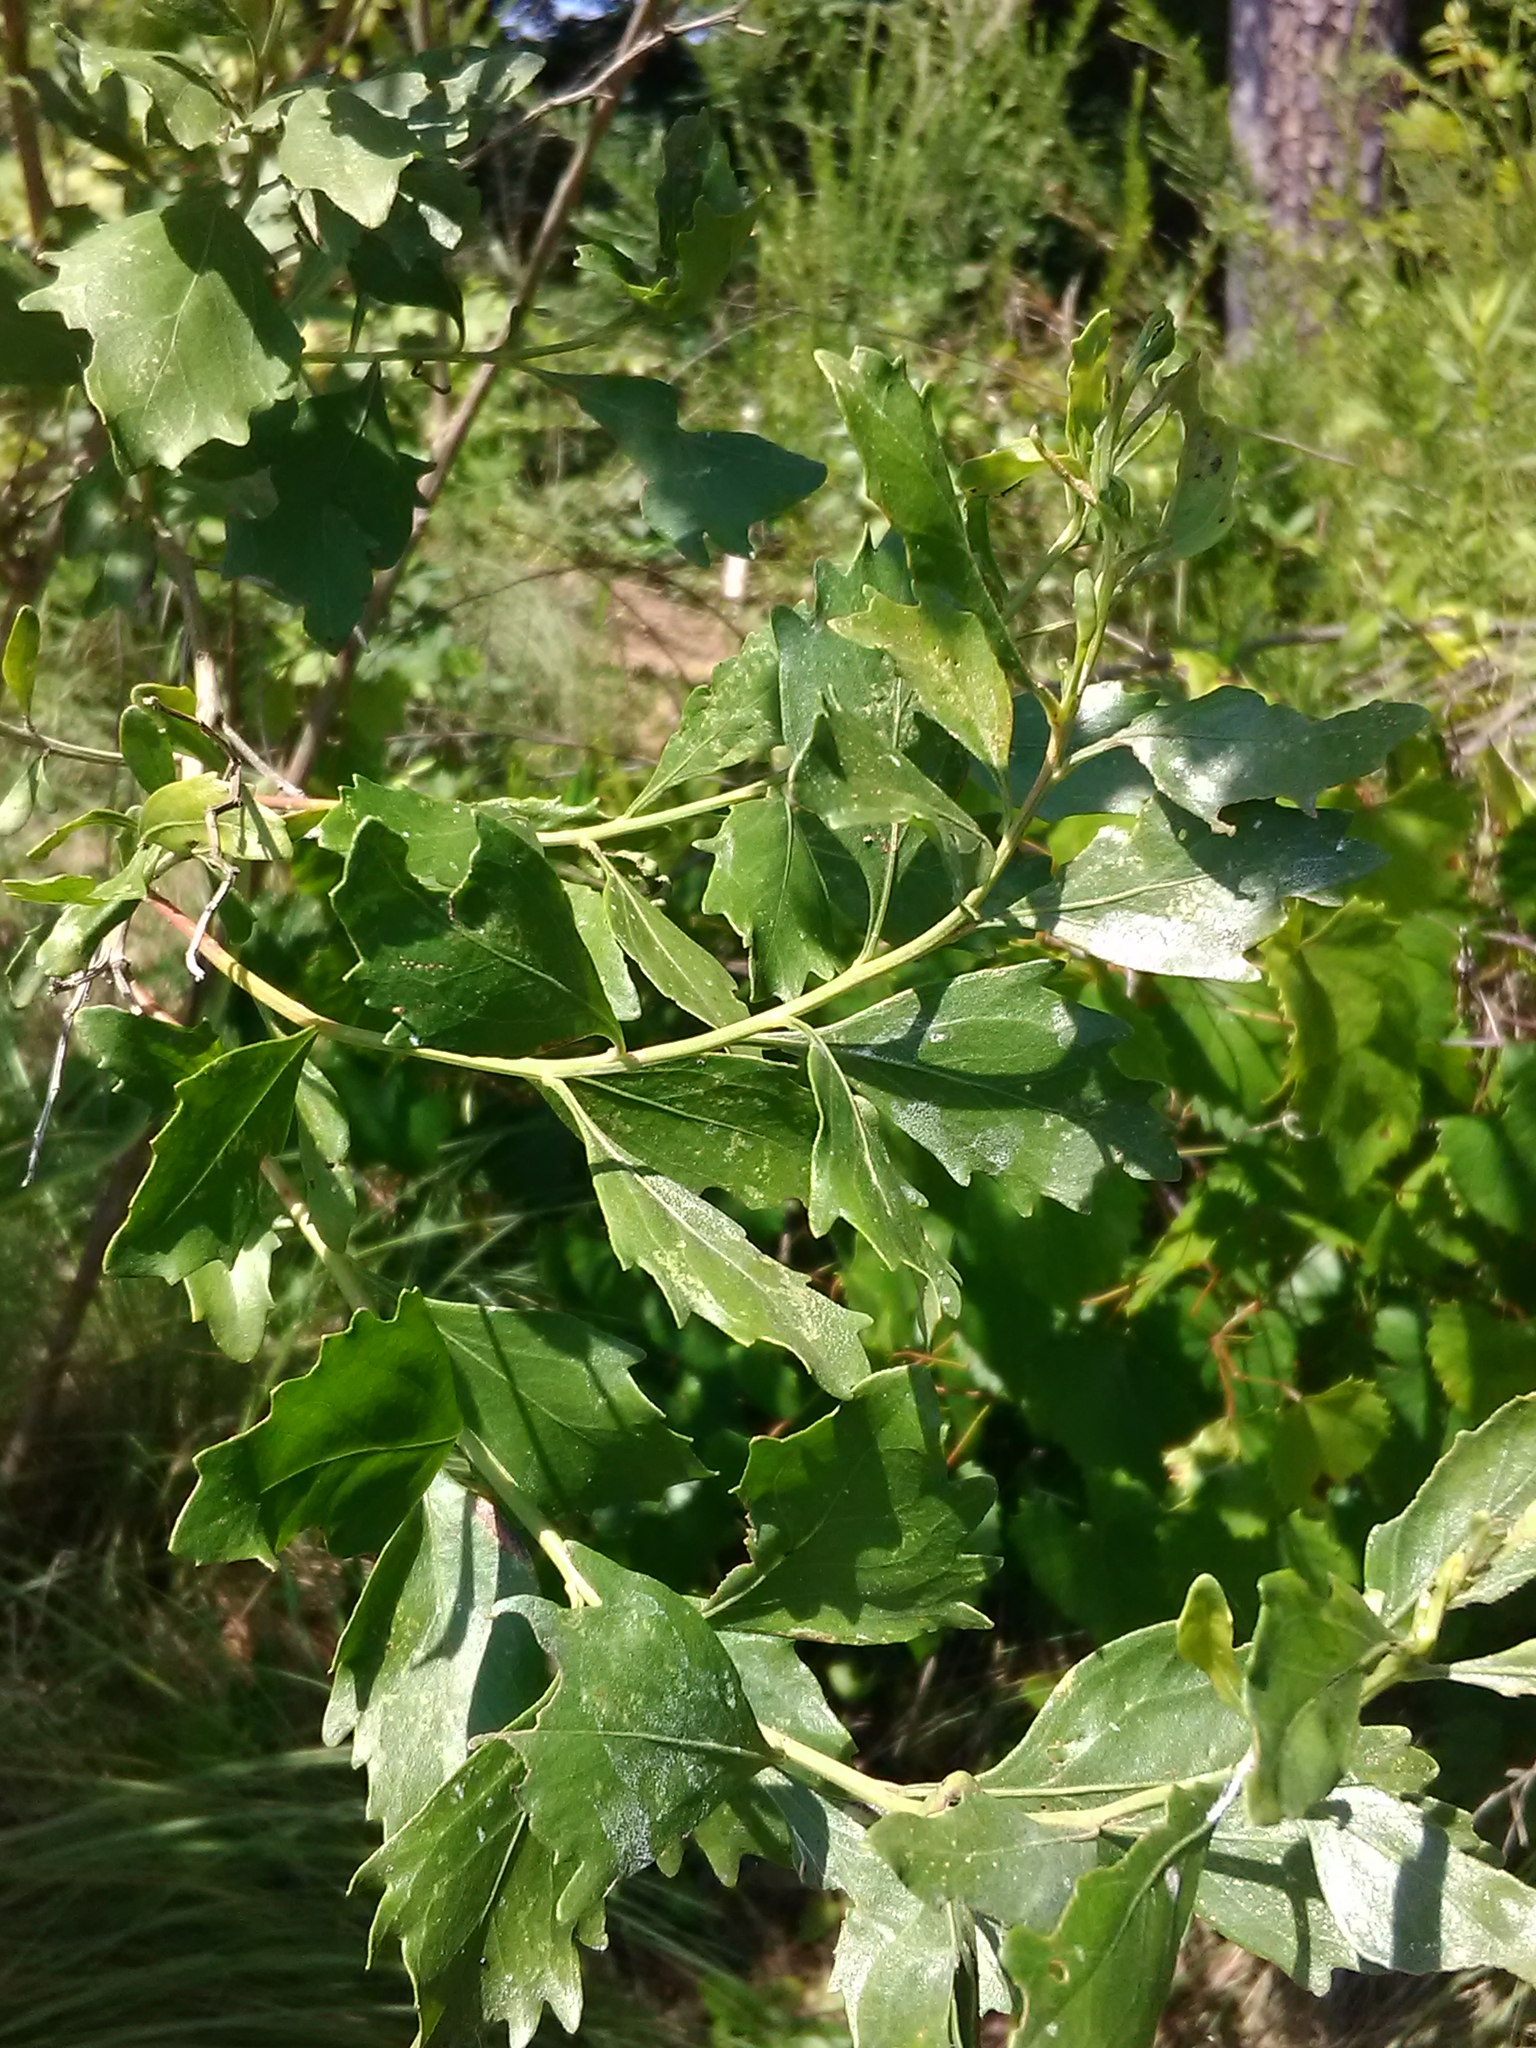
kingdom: Plantae
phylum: Tracheophyta
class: Magnoliopsida
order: Asterales
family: Asteraceae
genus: Baccharis
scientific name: Baccharis halimifolia
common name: Eastern baccharis
